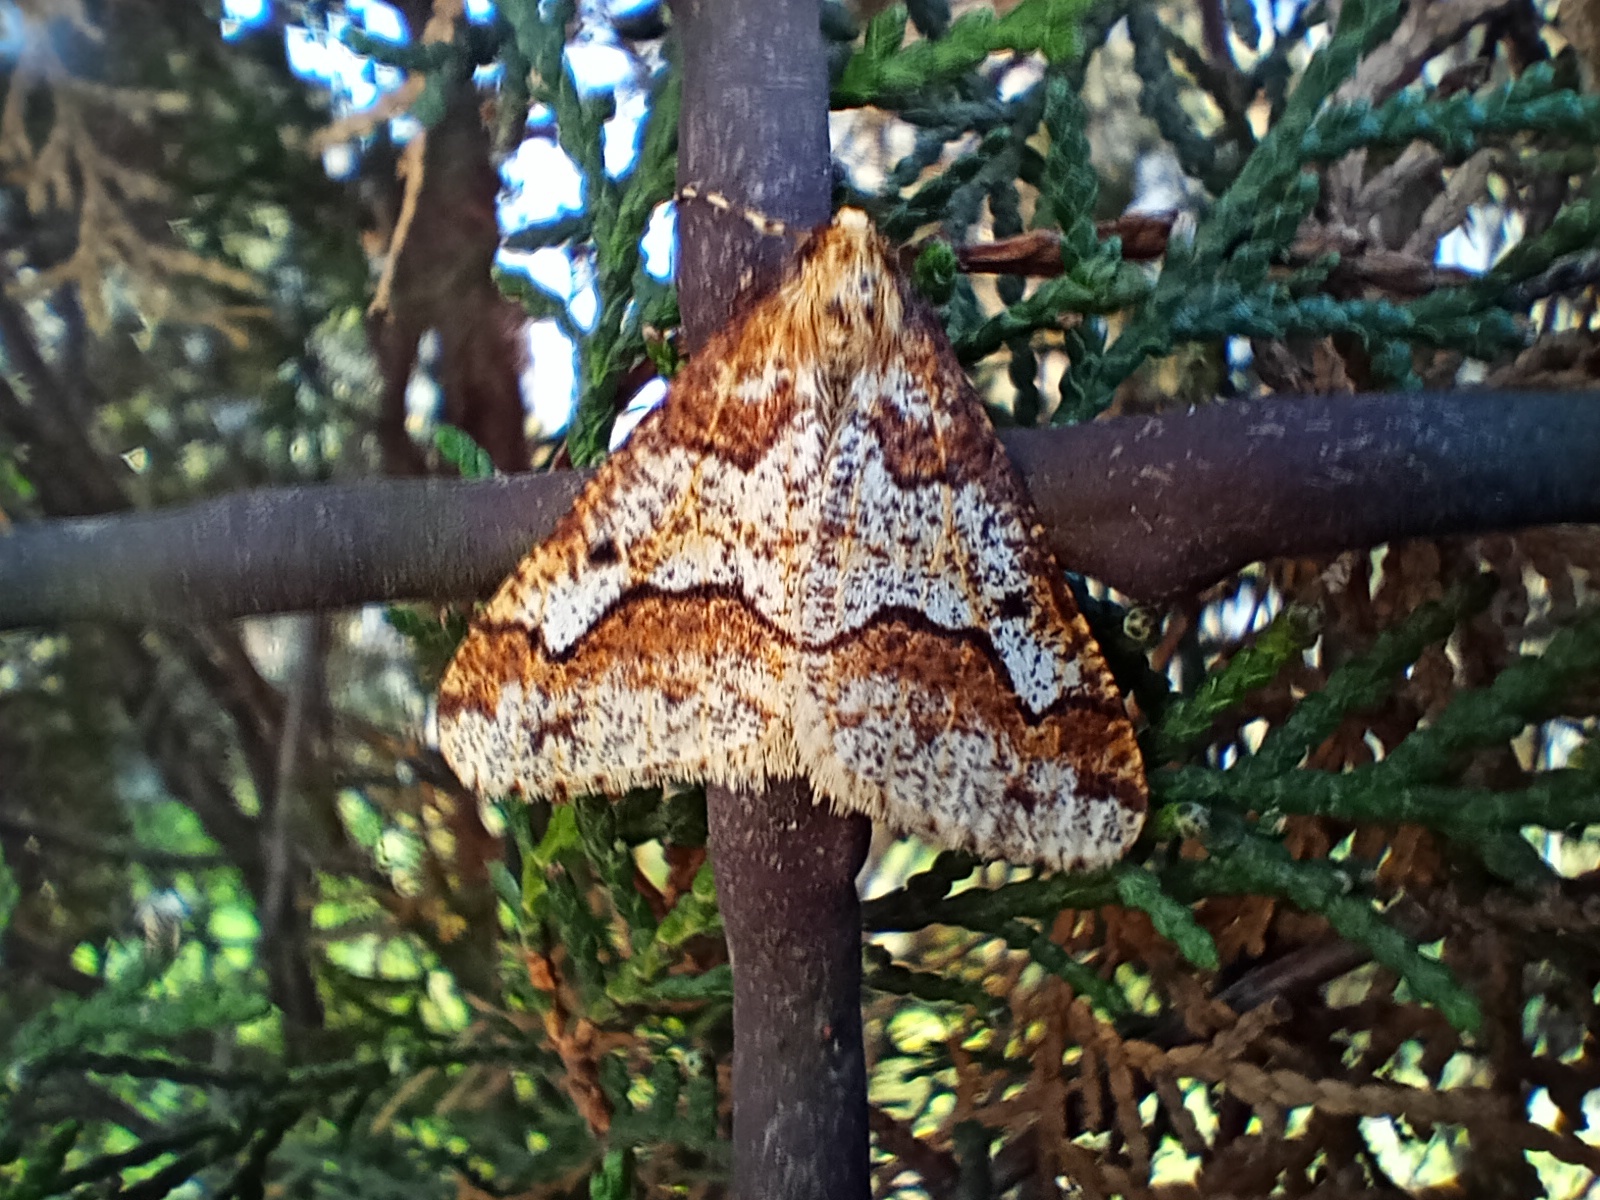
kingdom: Animalia
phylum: Arthropoda
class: Insecta
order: Lepidoptera
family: Geometridae
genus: Erannis
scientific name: Erannis defoliaria
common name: Mottled umber
